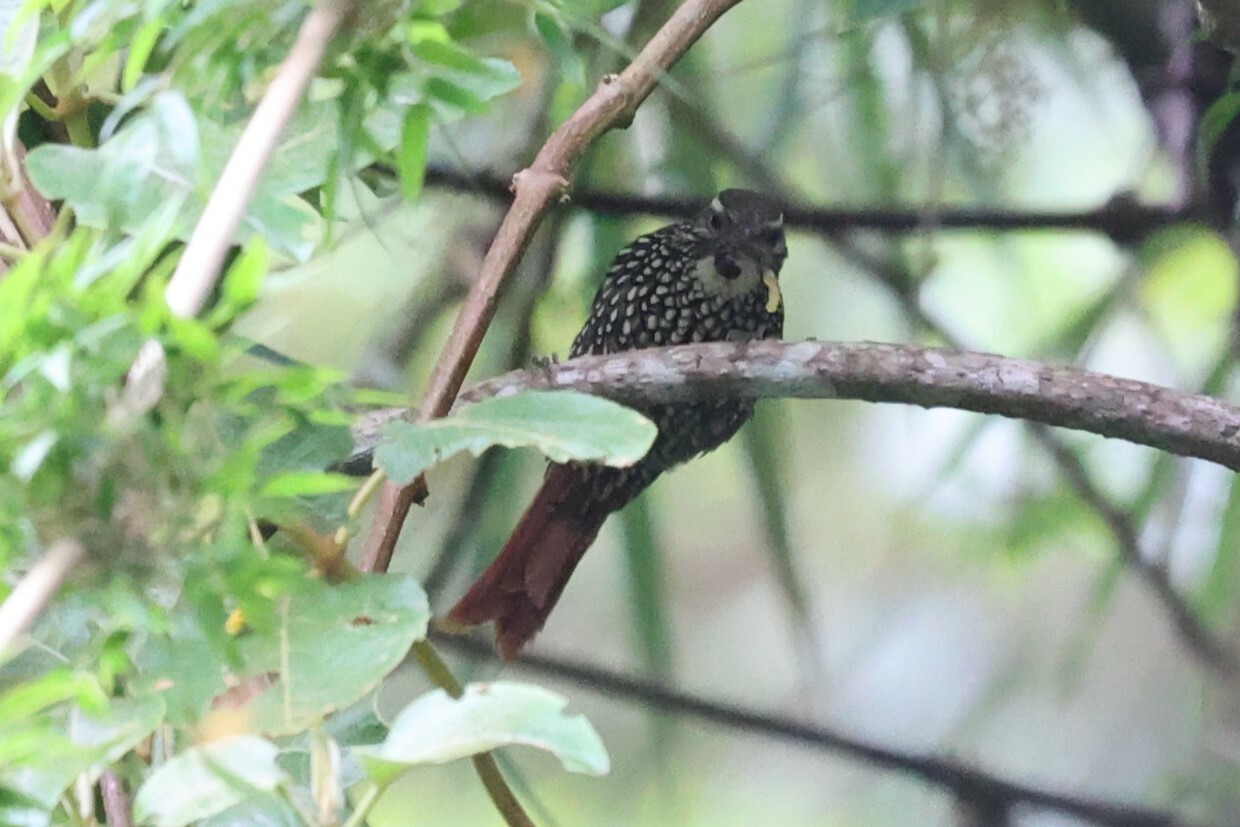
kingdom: Animalia
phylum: Chordata
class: Aves
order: Passeriformes
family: Furnariidae
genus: Margarornis
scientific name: Margarornis squamiger
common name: Pearled treerunner
